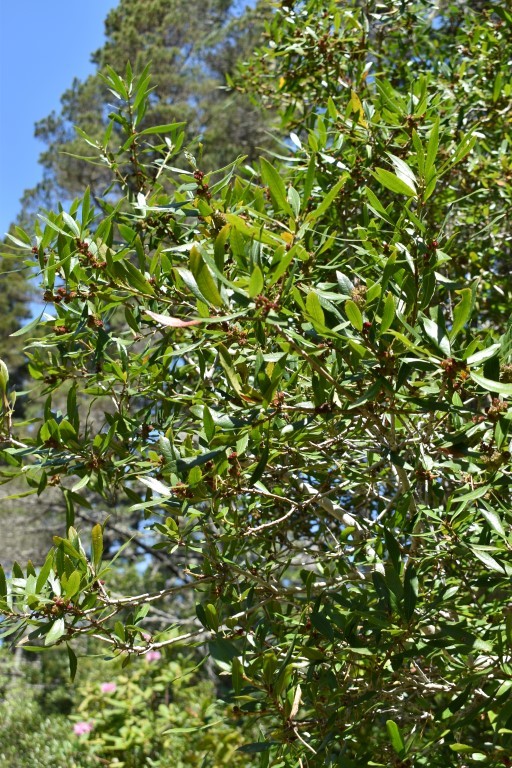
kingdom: Plantae
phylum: Tracheophyta
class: Magnoliopsida
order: Fagales
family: Myricaceae
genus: Morella
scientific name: Morella californica
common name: California wax-myrtle
